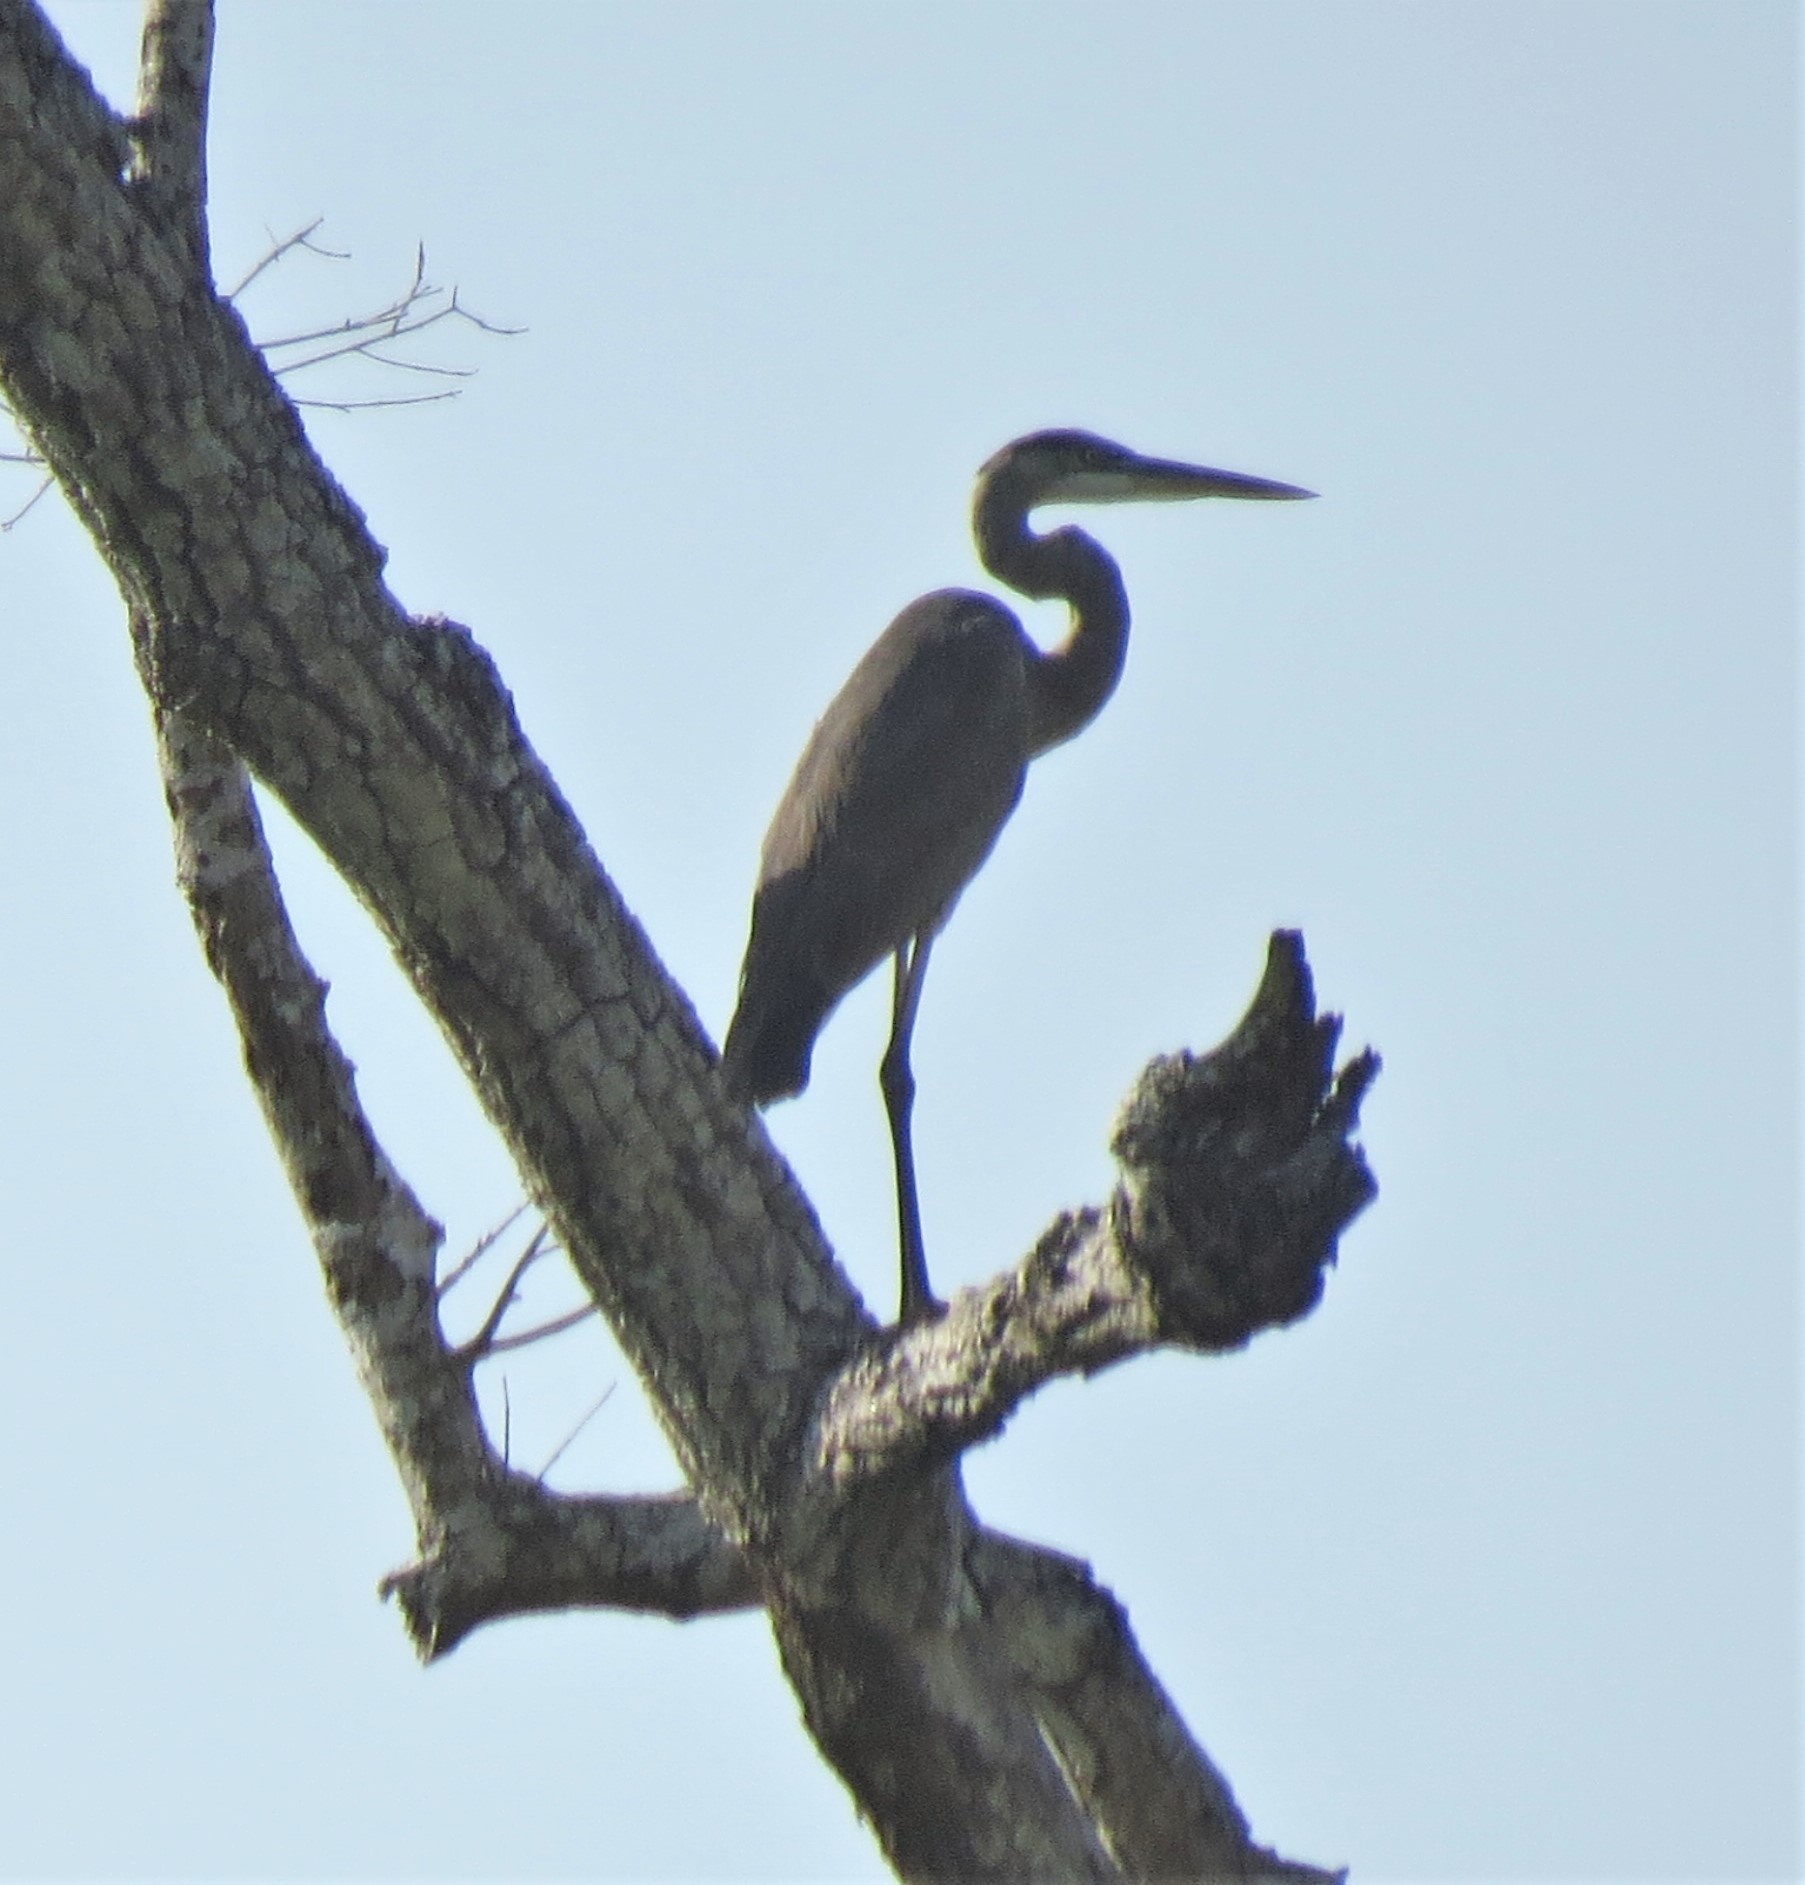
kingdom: Animalia
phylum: Chordata
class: Aves
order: Pelecaniformes
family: Ardeidae
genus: Ardea
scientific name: Ardea herodias
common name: Great blue heron
